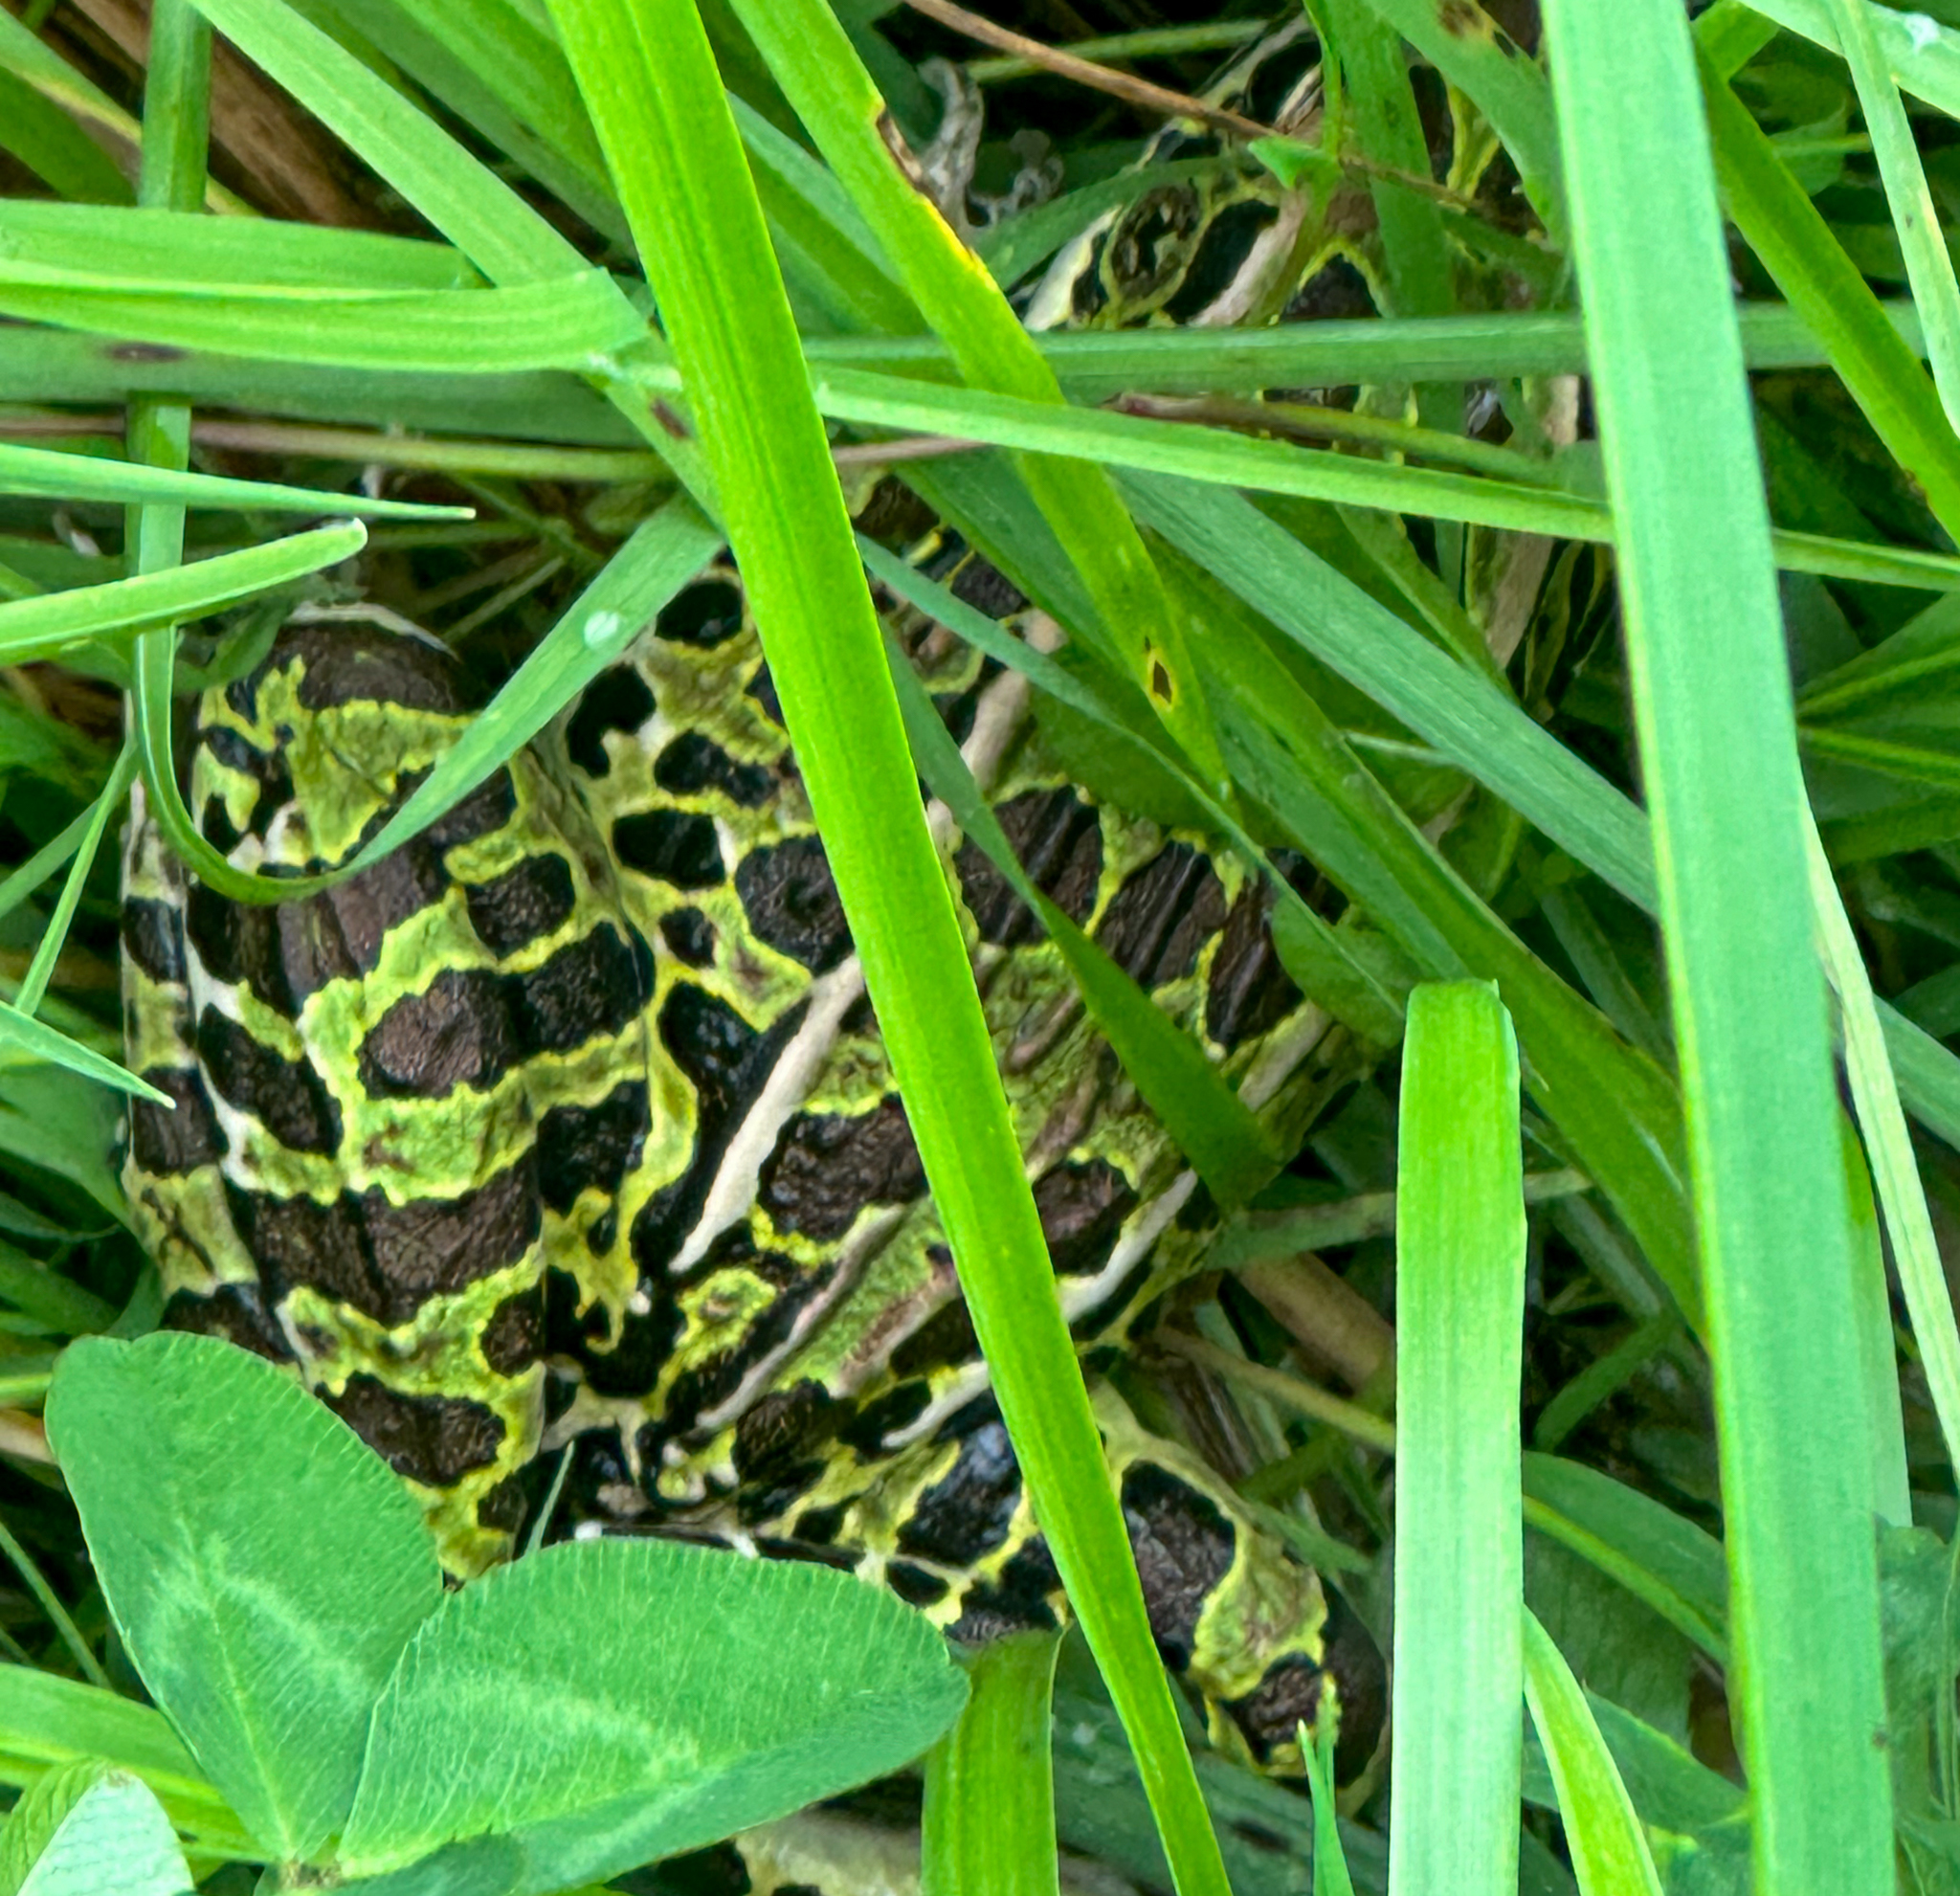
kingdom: Animalia
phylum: Chordata
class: Amphibia
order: Anura
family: Ranidae
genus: Lithobates
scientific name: Lithobates pipiens
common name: Northern leopard frog
